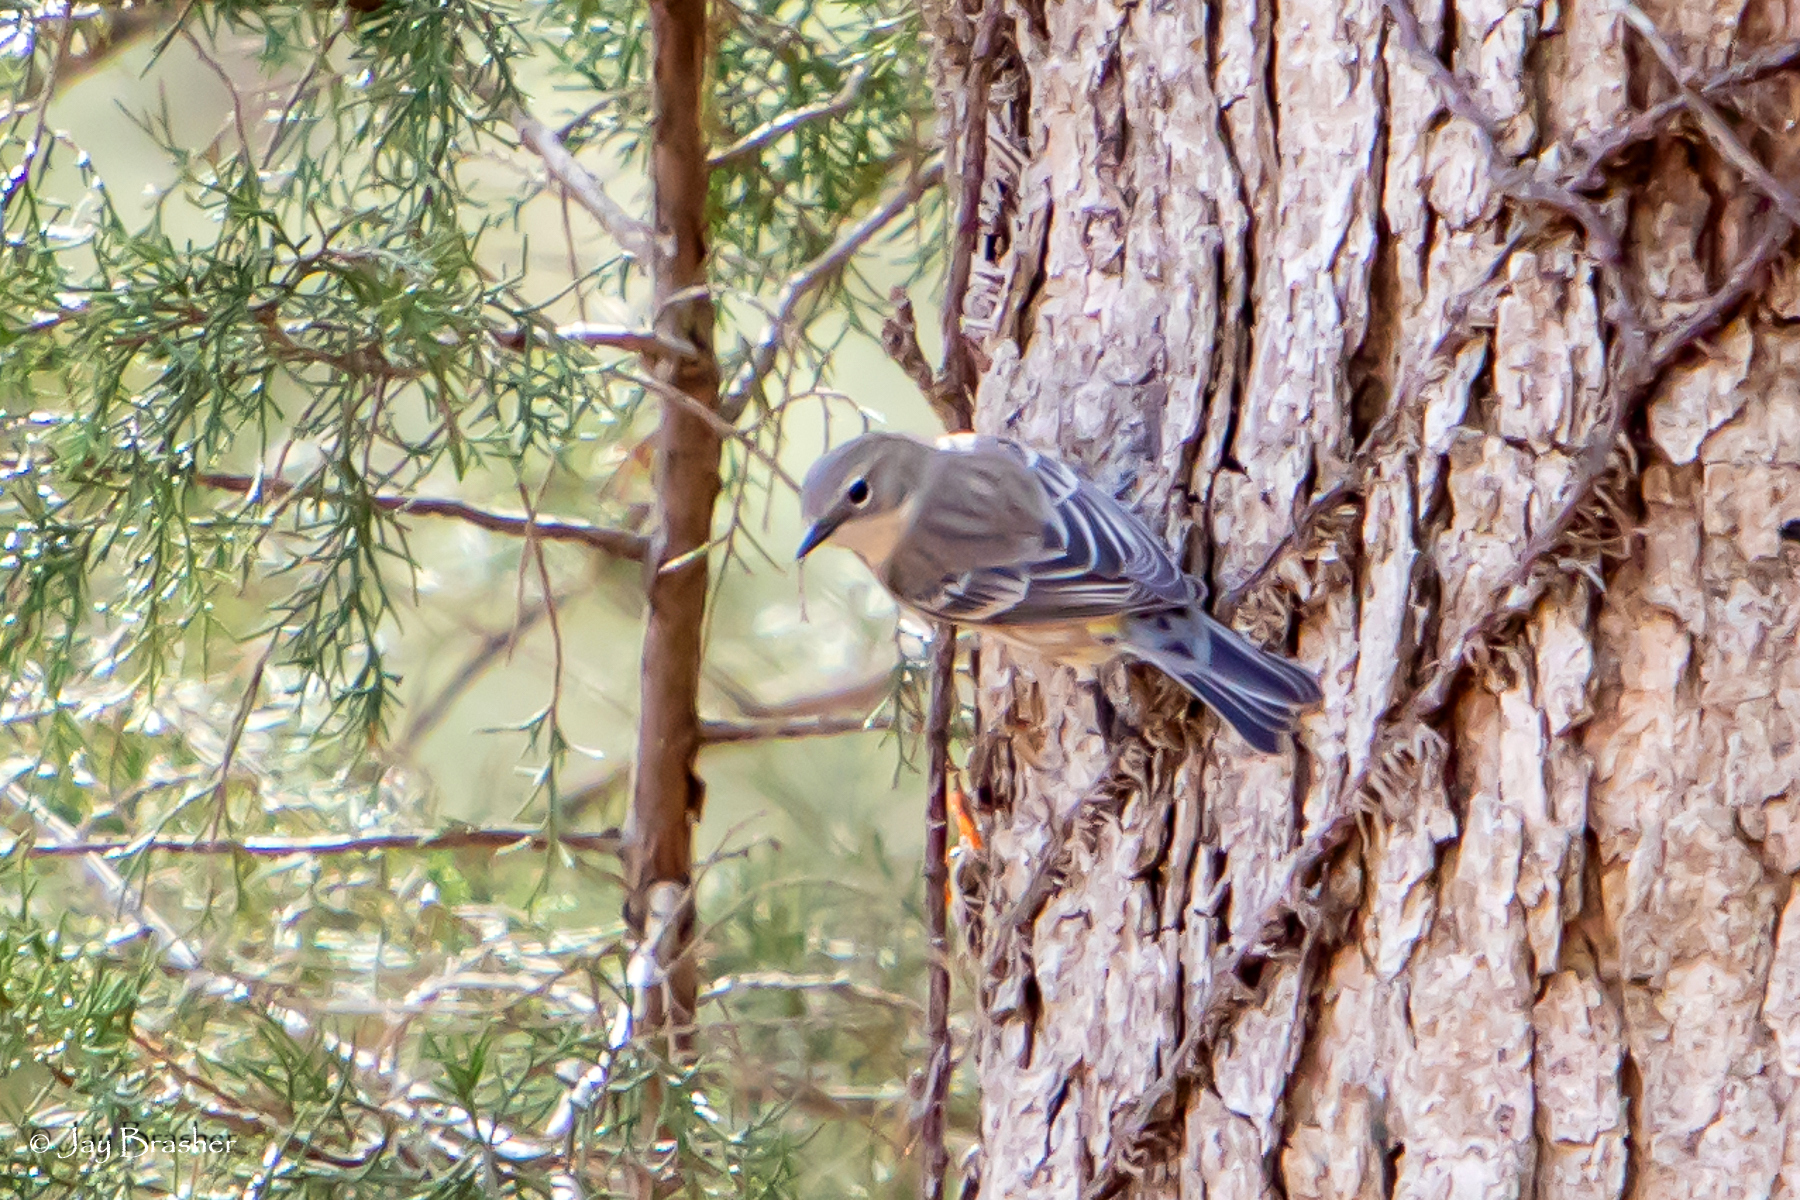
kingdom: Animalia
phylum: Chordata
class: Aves
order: Passeriformes
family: Parulidae
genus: Setophaga
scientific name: Setophaga coronata
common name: Myrtle warbler
